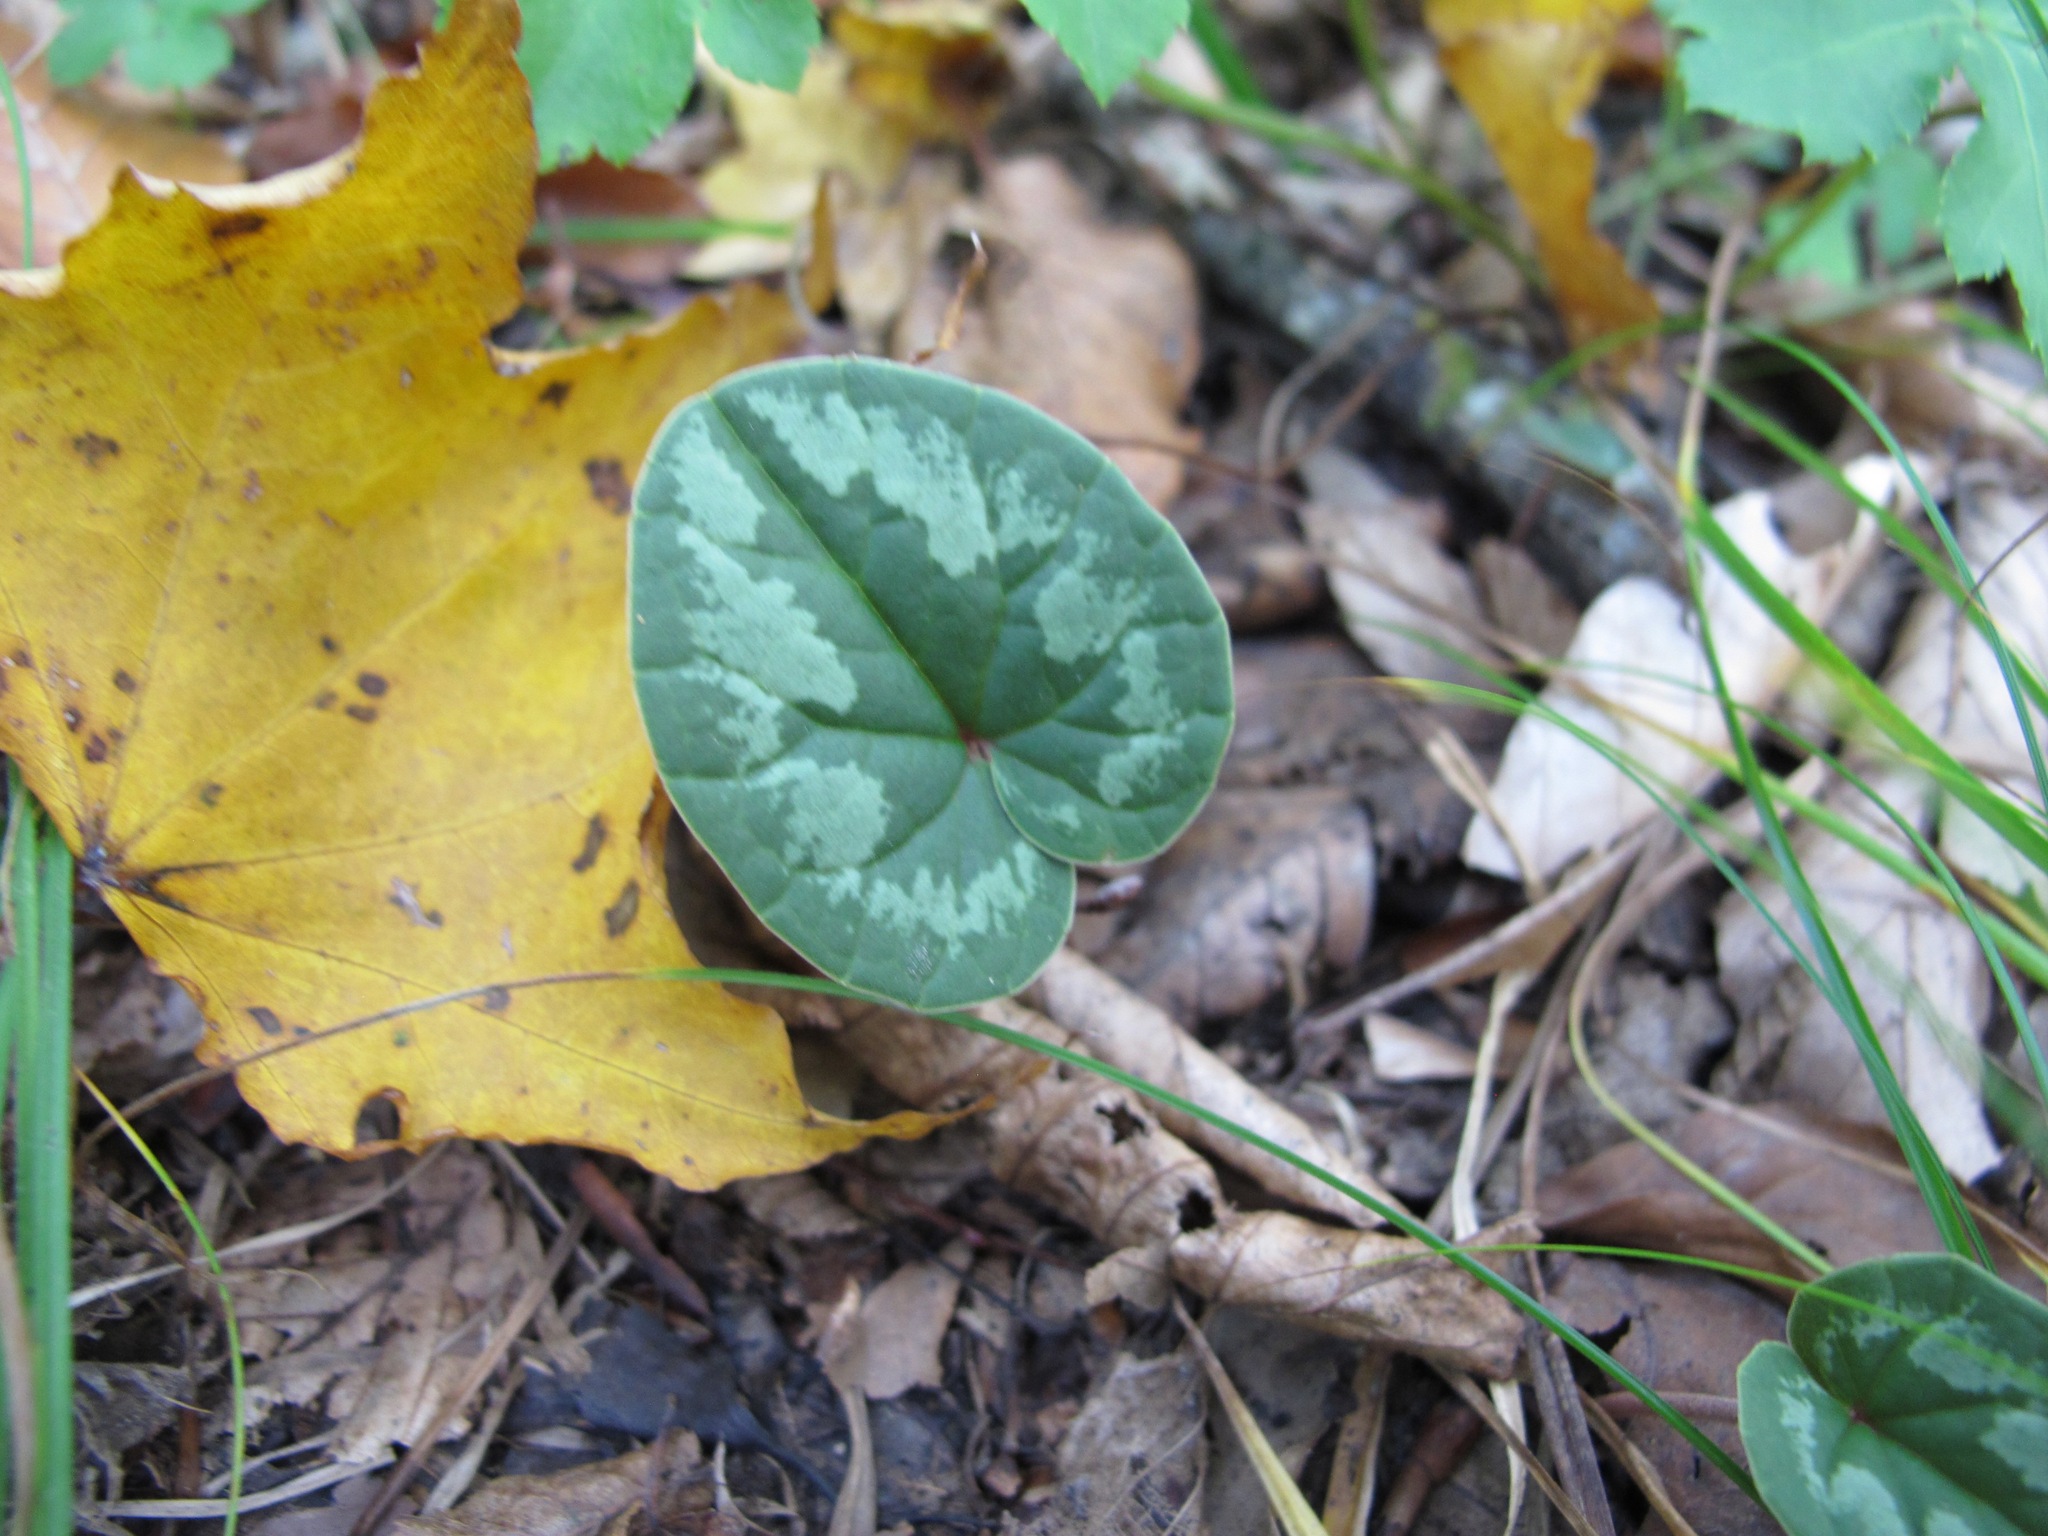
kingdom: Plantae
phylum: Tracheophyta
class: Magnoliopsida
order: Ericales
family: Primulaceae
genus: Cyclamen
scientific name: Cyclamen coum
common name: Eastern sowbread
